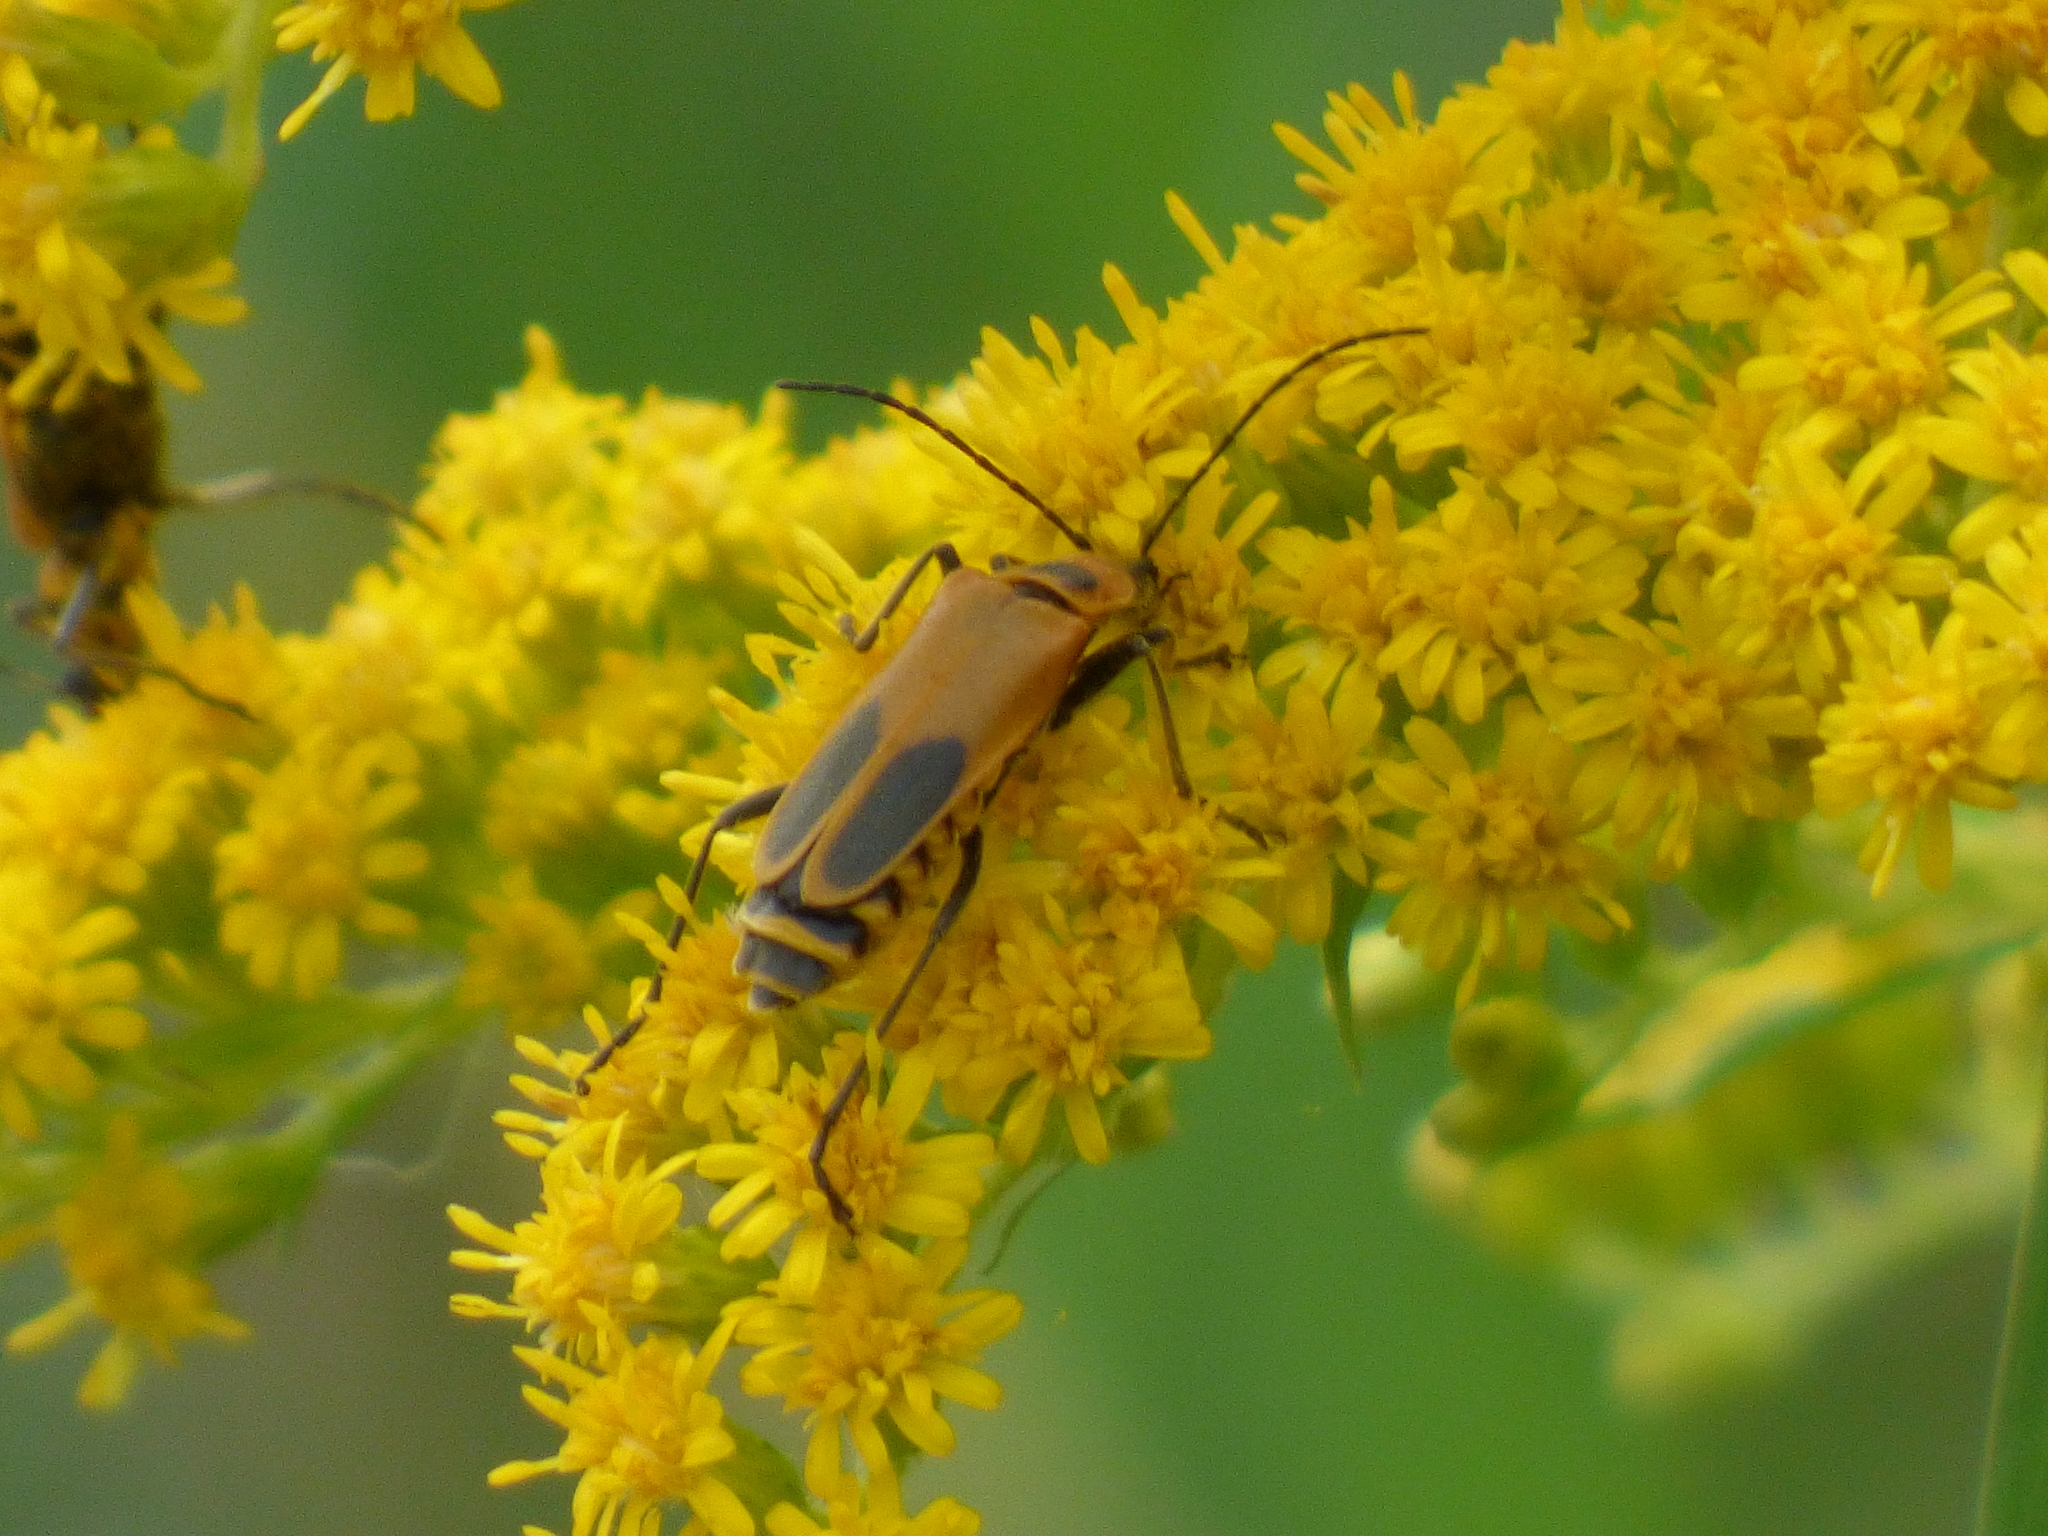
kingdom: Animalia
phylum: Arthropoda
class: Insecta
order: Coleoptera
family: Cantharidae
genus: Chauliognathus
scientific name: Chauliognathus pensylvanicus
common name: Goldenrod soldier beetle
